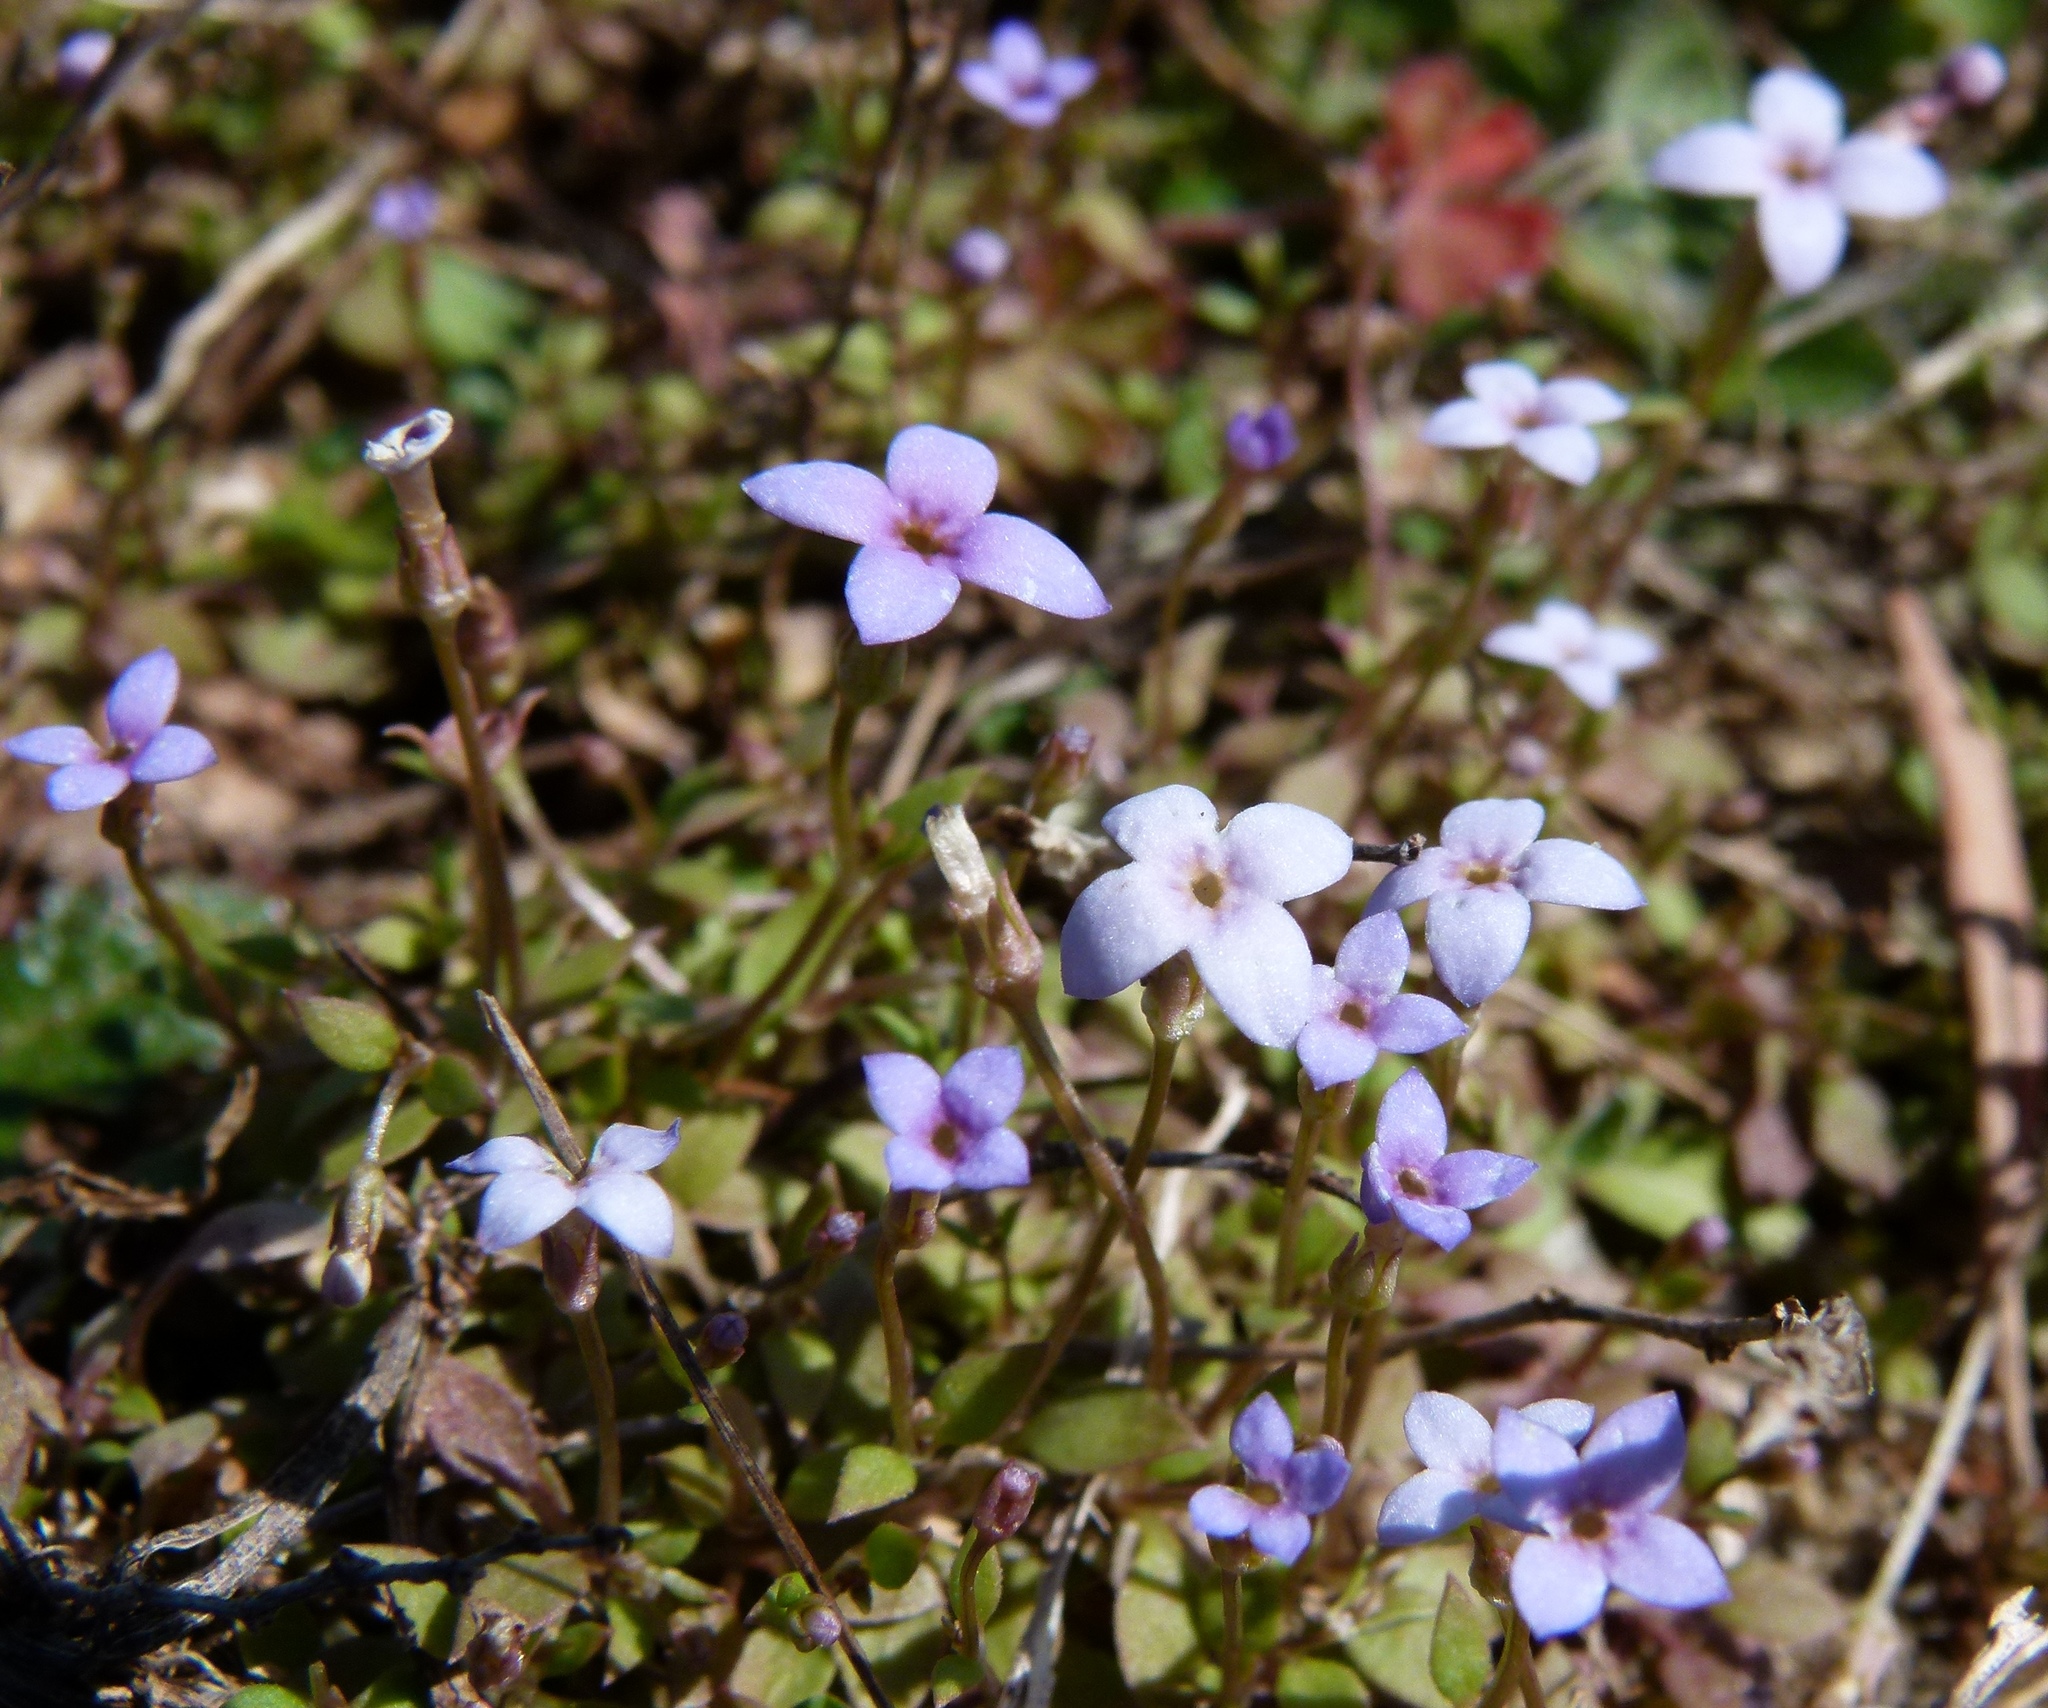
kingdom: Plantae
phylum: Tracheophyta
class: Magnoliopsida
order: Gentianales
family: Rubiaceae
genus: Houstonia
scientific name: Houstonia pusilla
